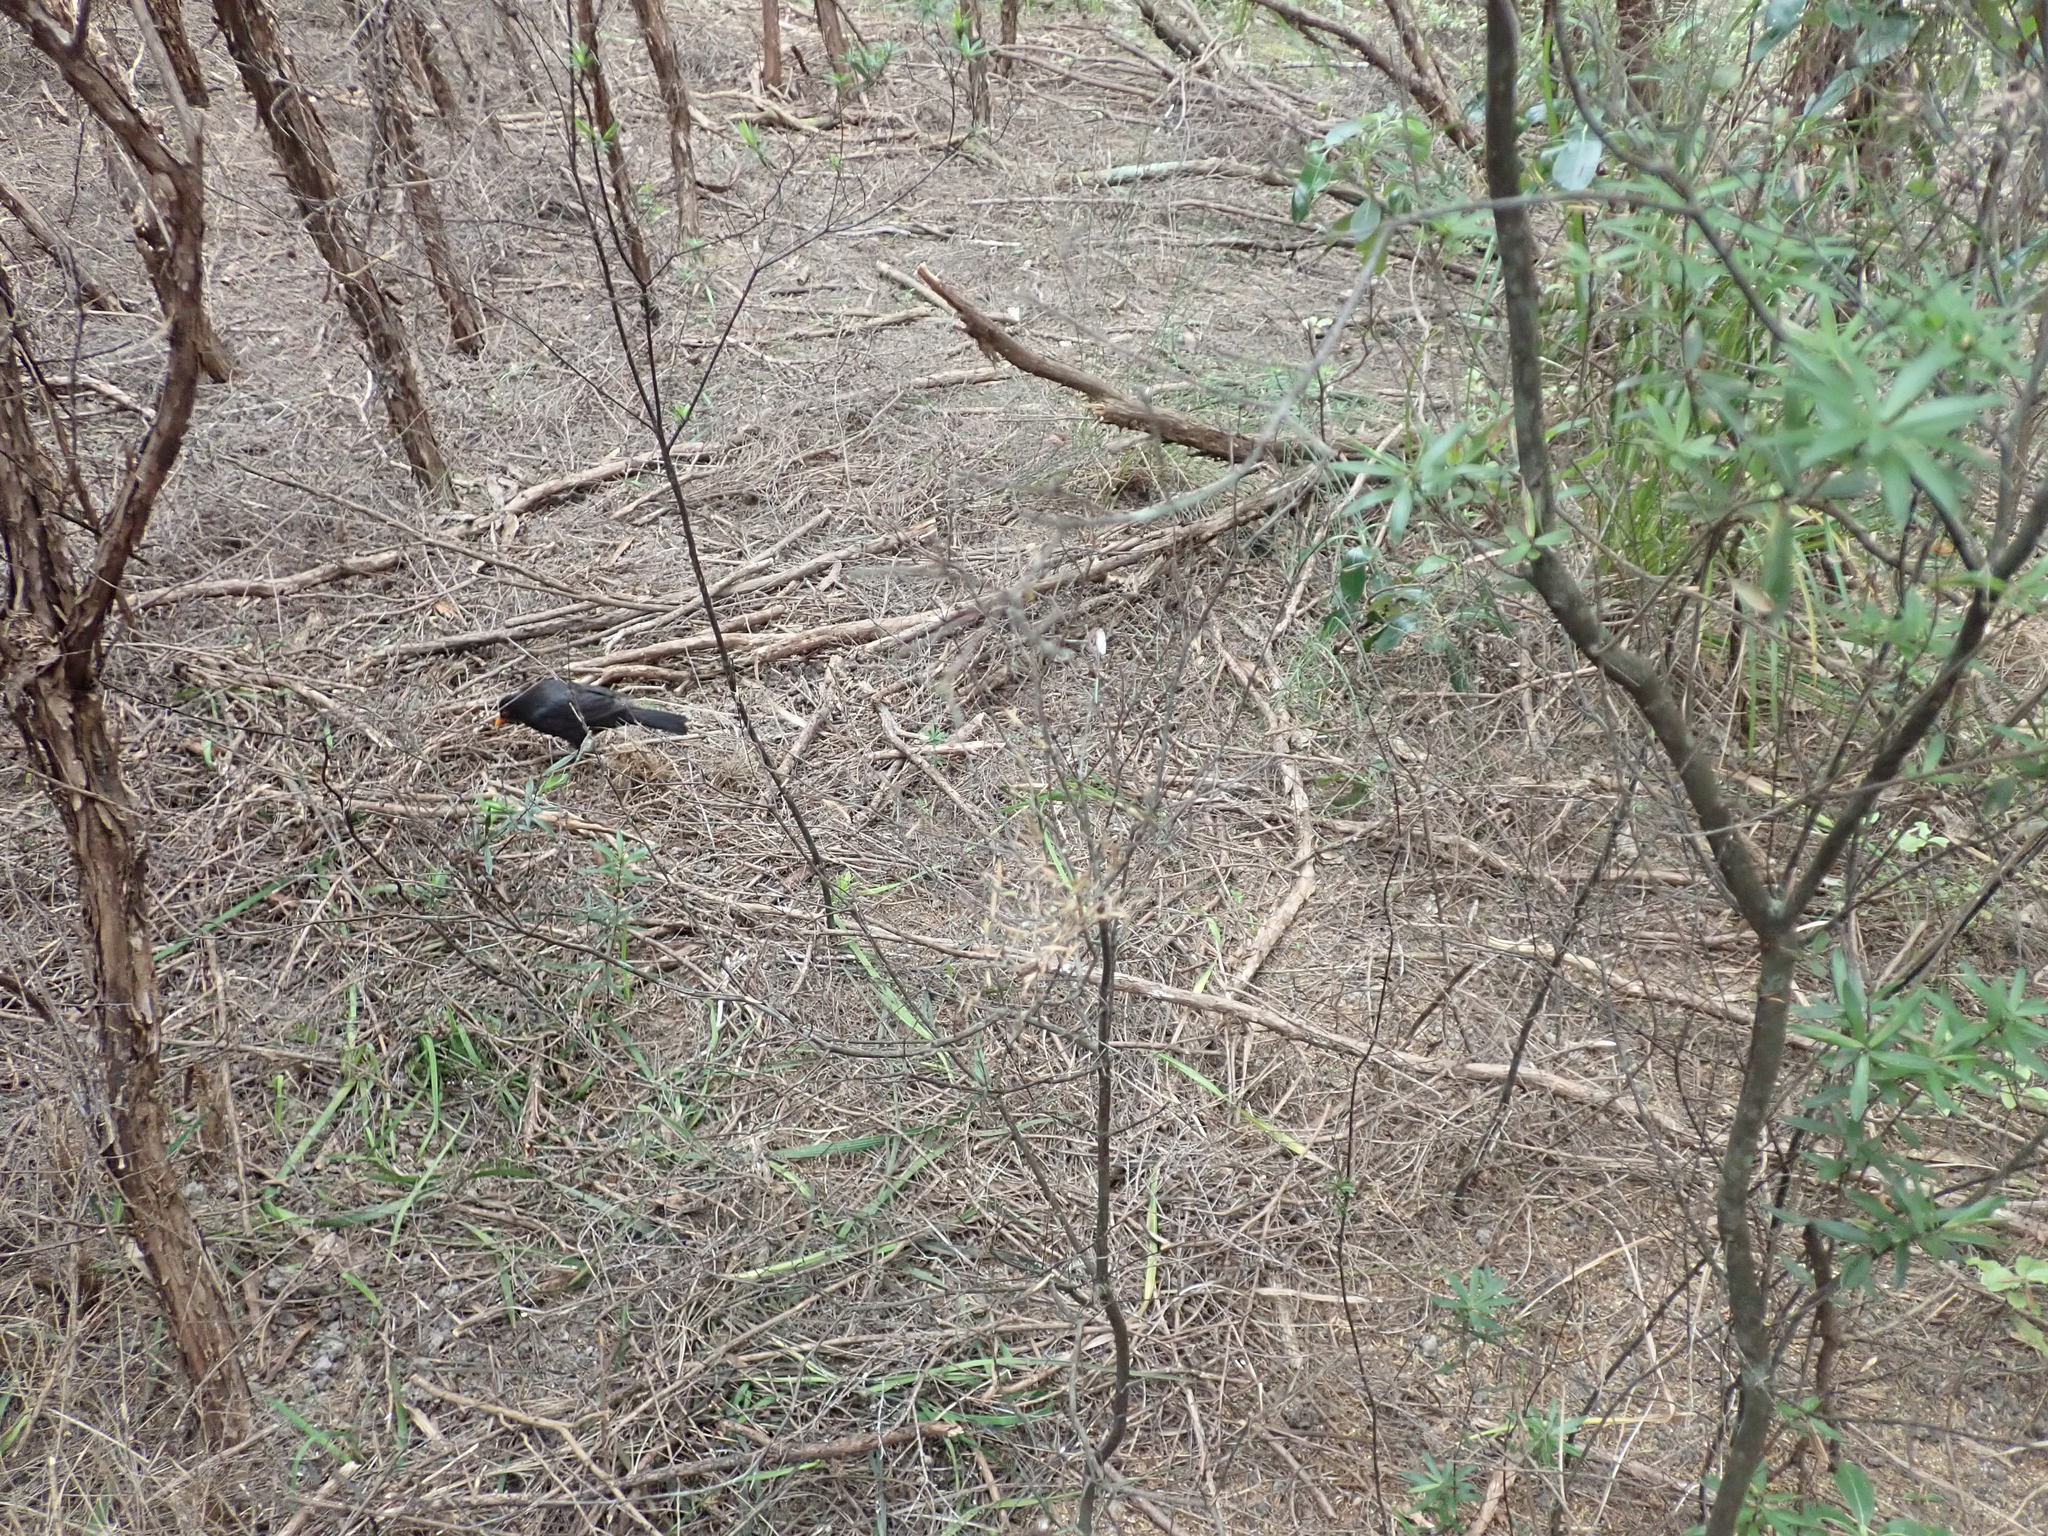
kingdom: Animalia
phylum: Chordata
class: Aves
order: Passeriformes
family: Turdidae
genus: Turdus
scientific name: Turdus merula
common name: Common blackbird
